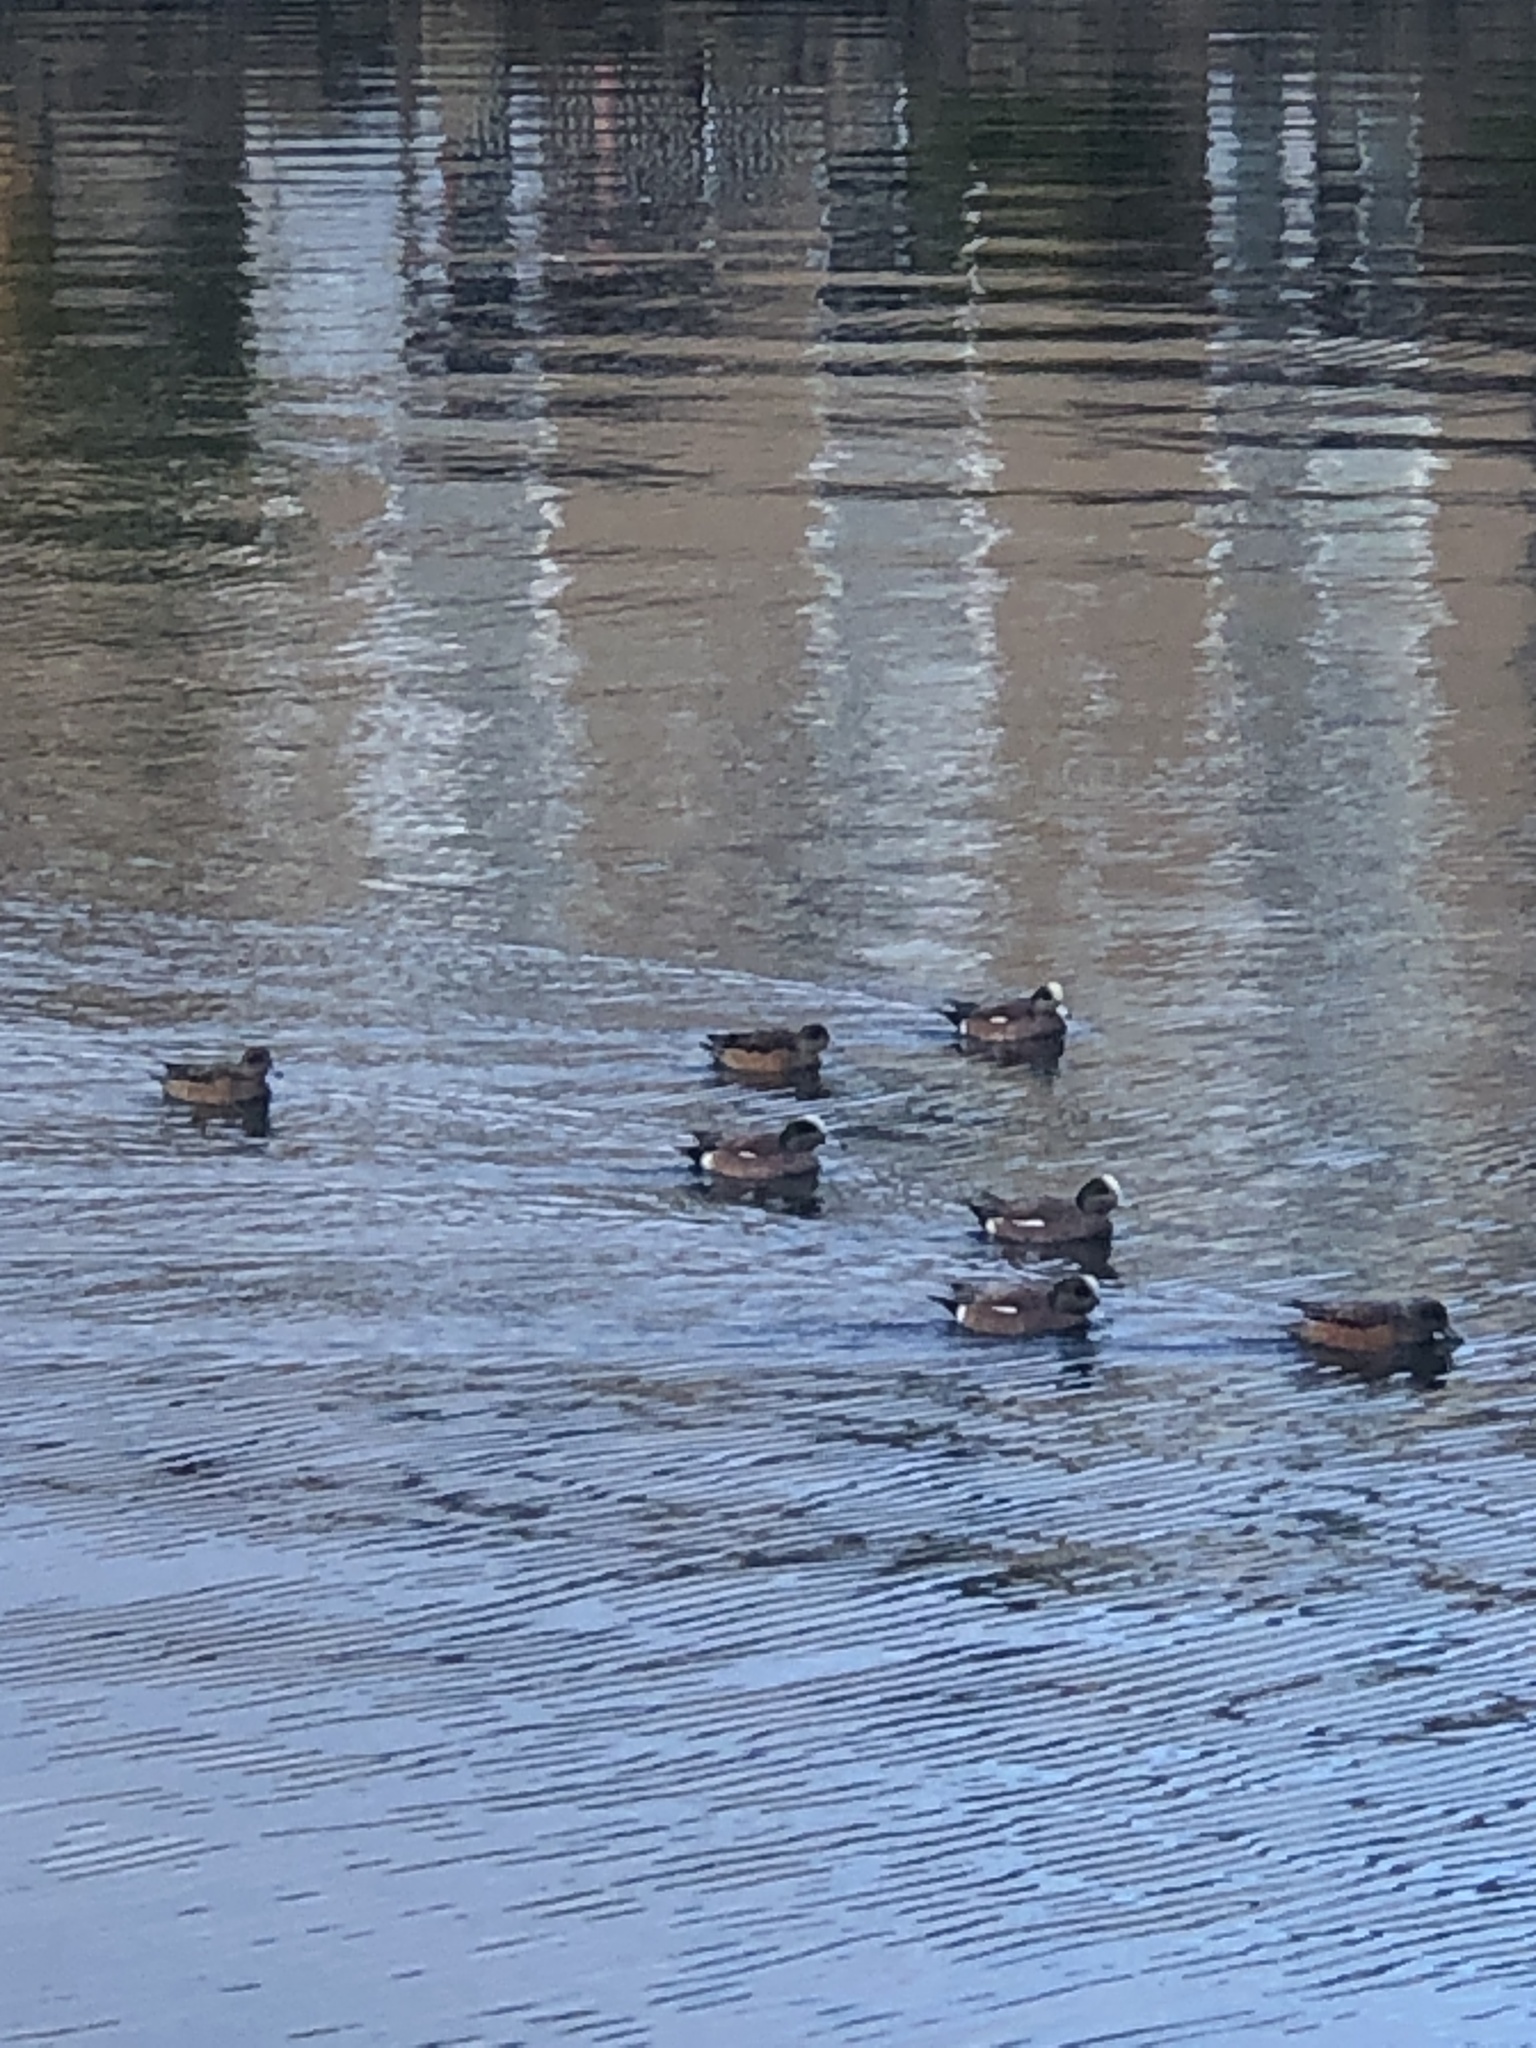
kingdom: Animalia
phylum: Chordata
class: Aves
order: Anseriformes
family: Anatidae
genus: Mareca
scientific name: Mareca americana
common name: American wigeon
